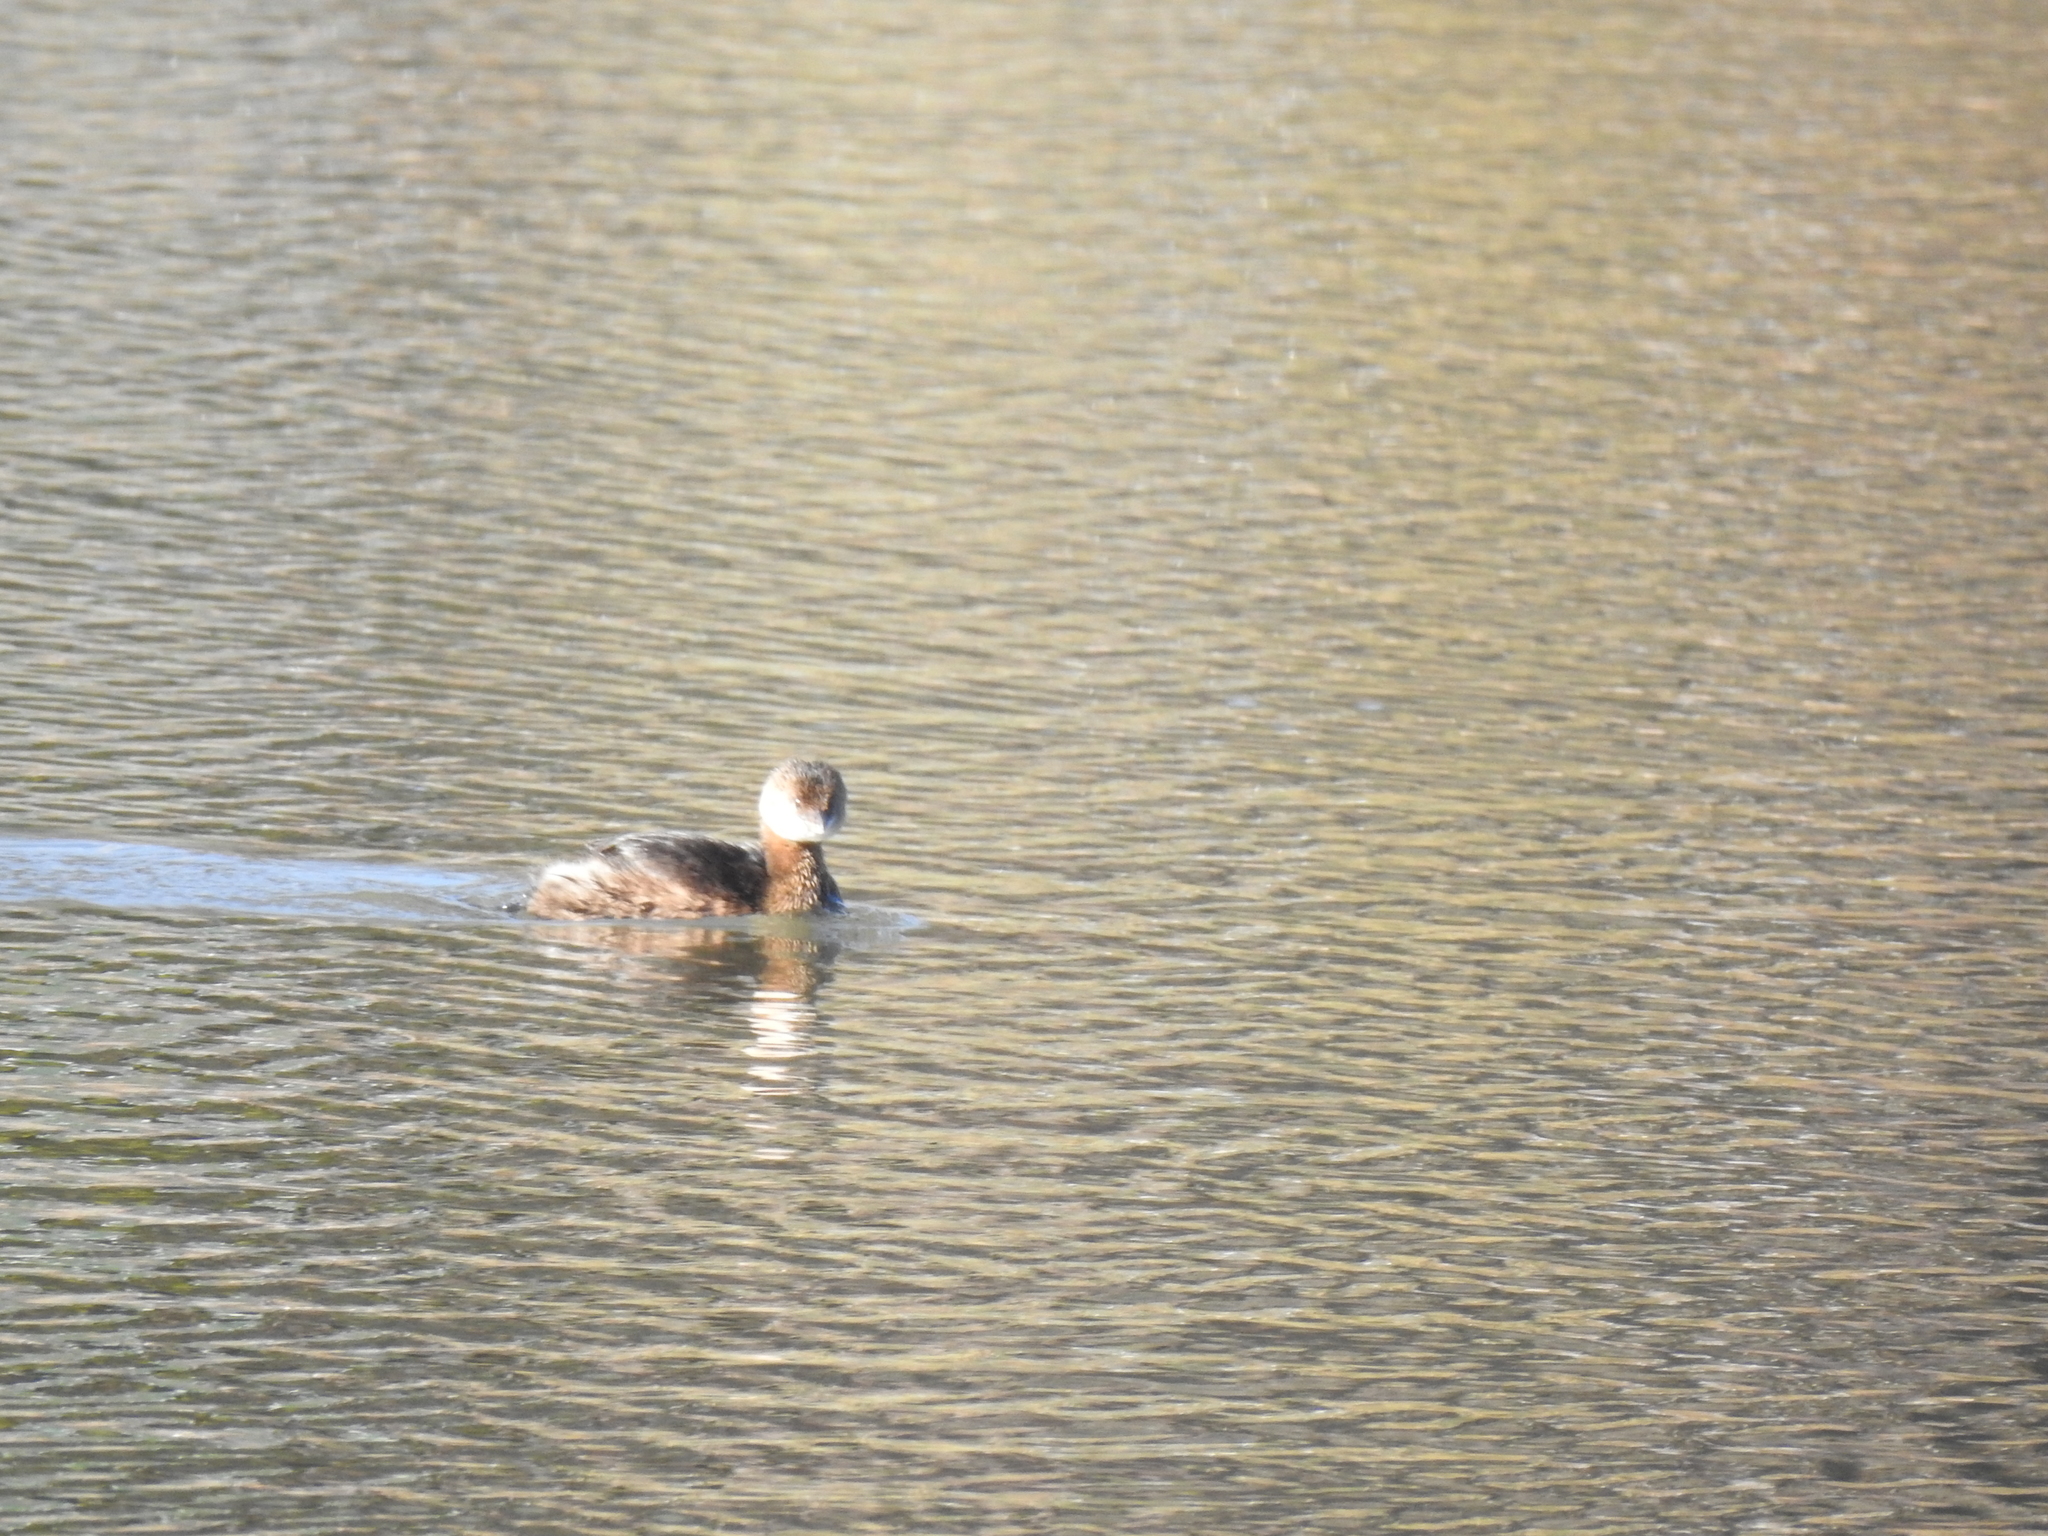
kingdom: Animalia
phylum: Chordata
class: Aves
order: Podicipediformes
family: Podicipedidae
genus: Podilymbus
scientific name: Podilymbus podiceps
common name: Pied-billed grebe
